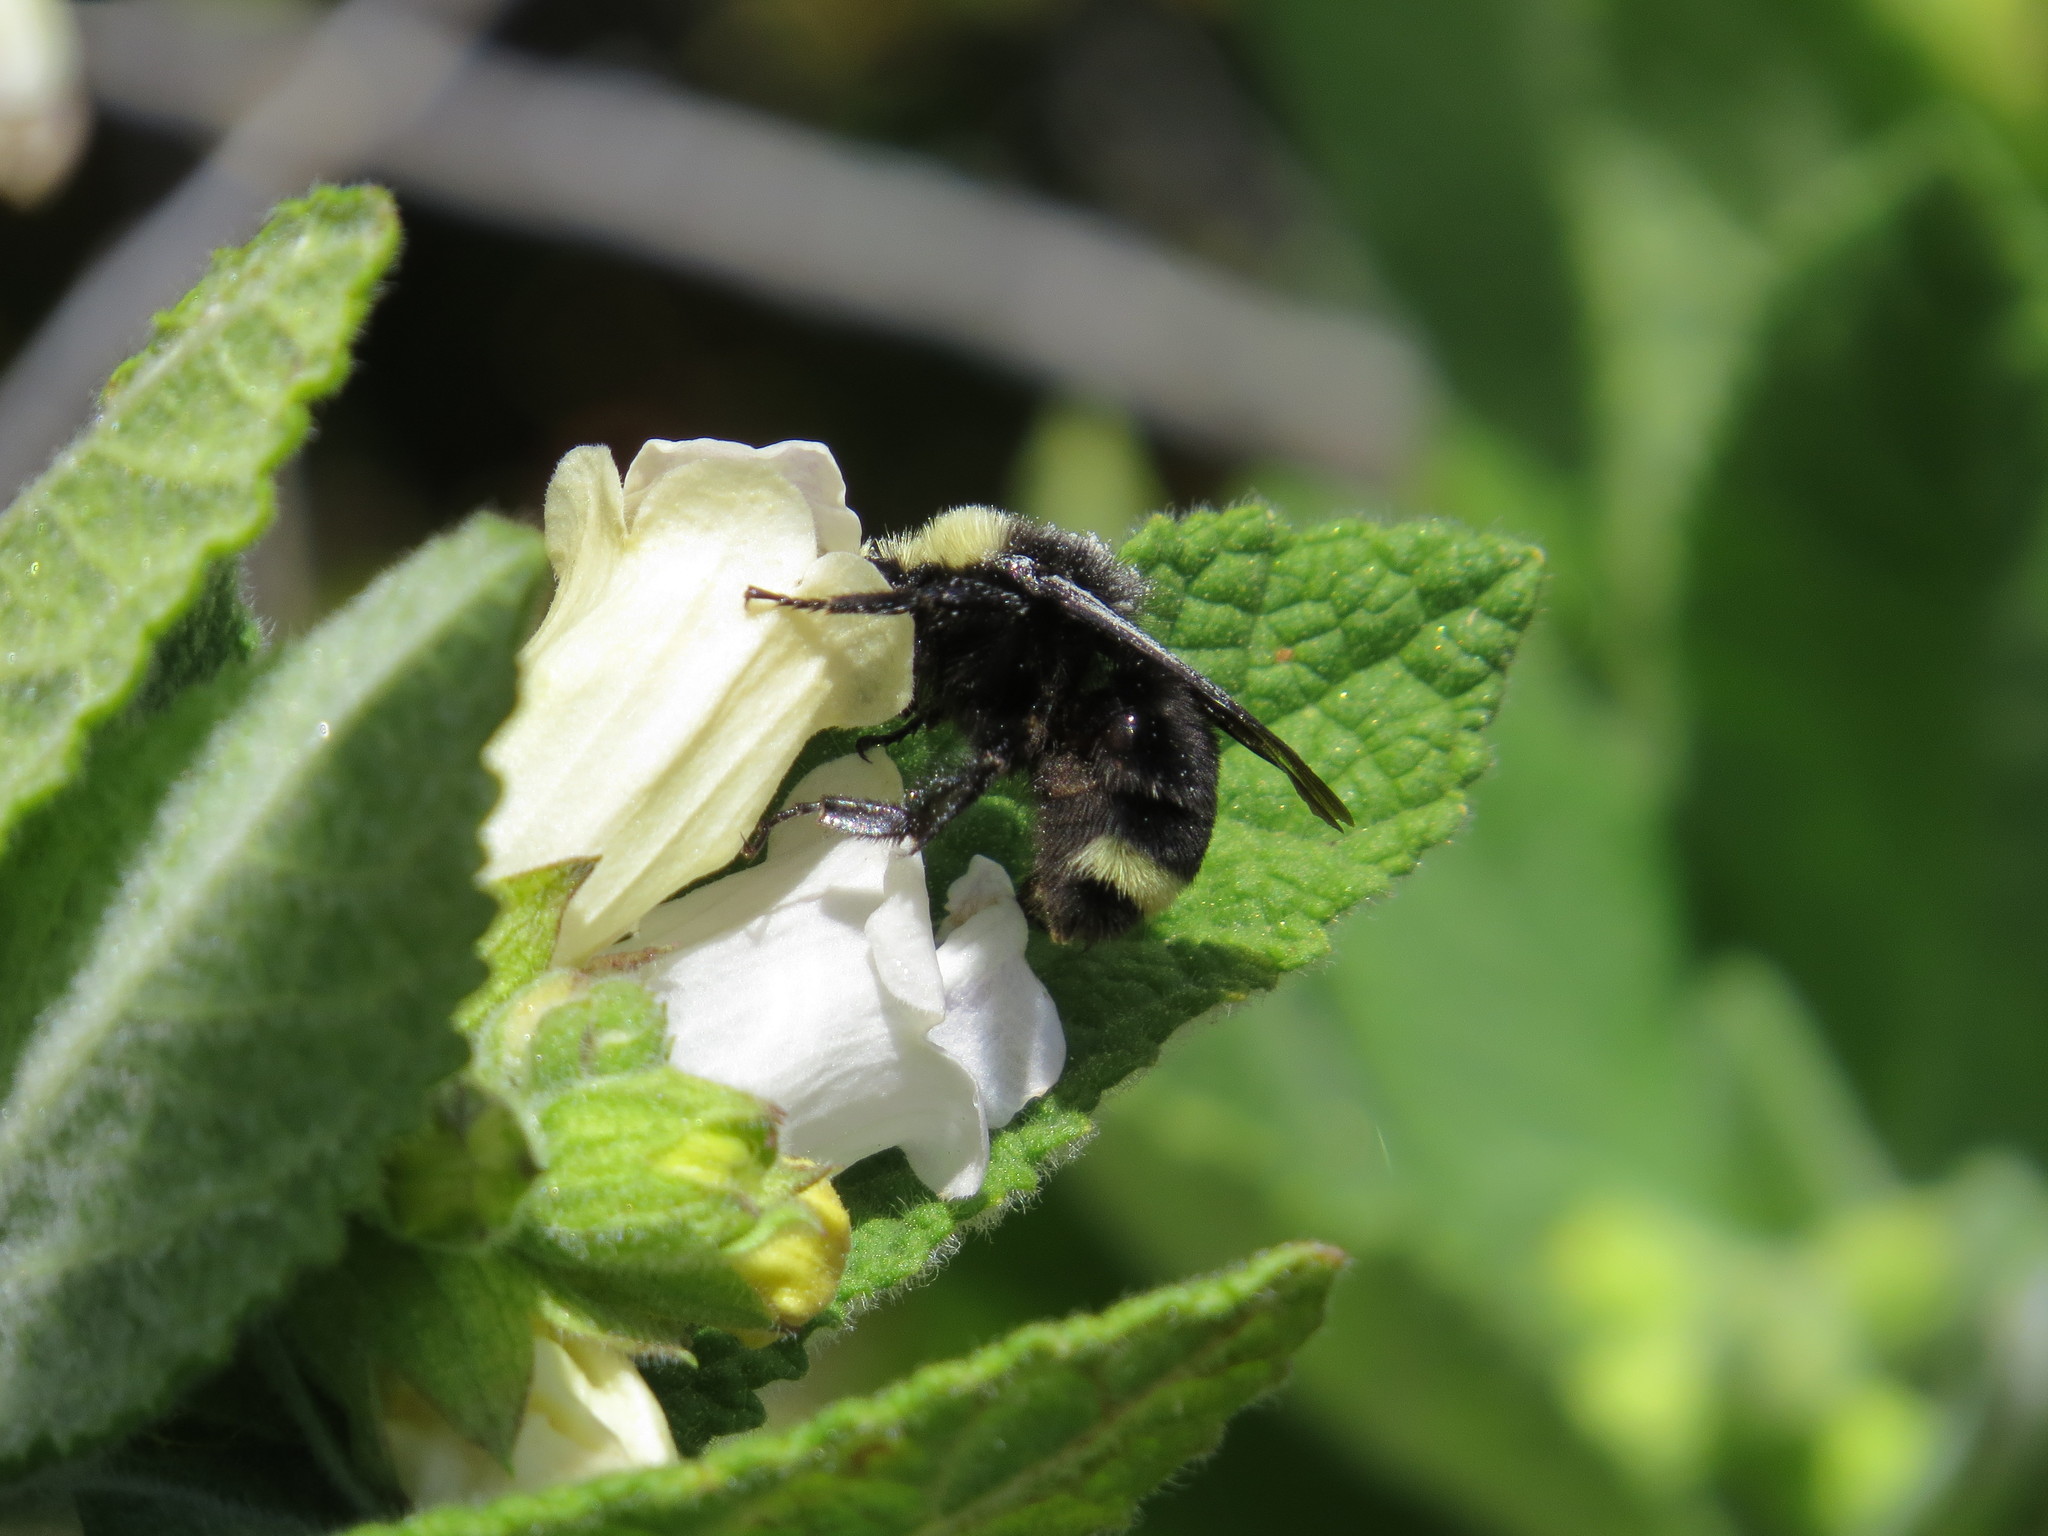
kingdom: Animalia
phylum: Arthropoda
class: Insecta
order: Hymenoptera
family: Apidae
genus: Bombus
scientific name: Bombus vosnesenskii
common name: Vosnesensky bumble bee
